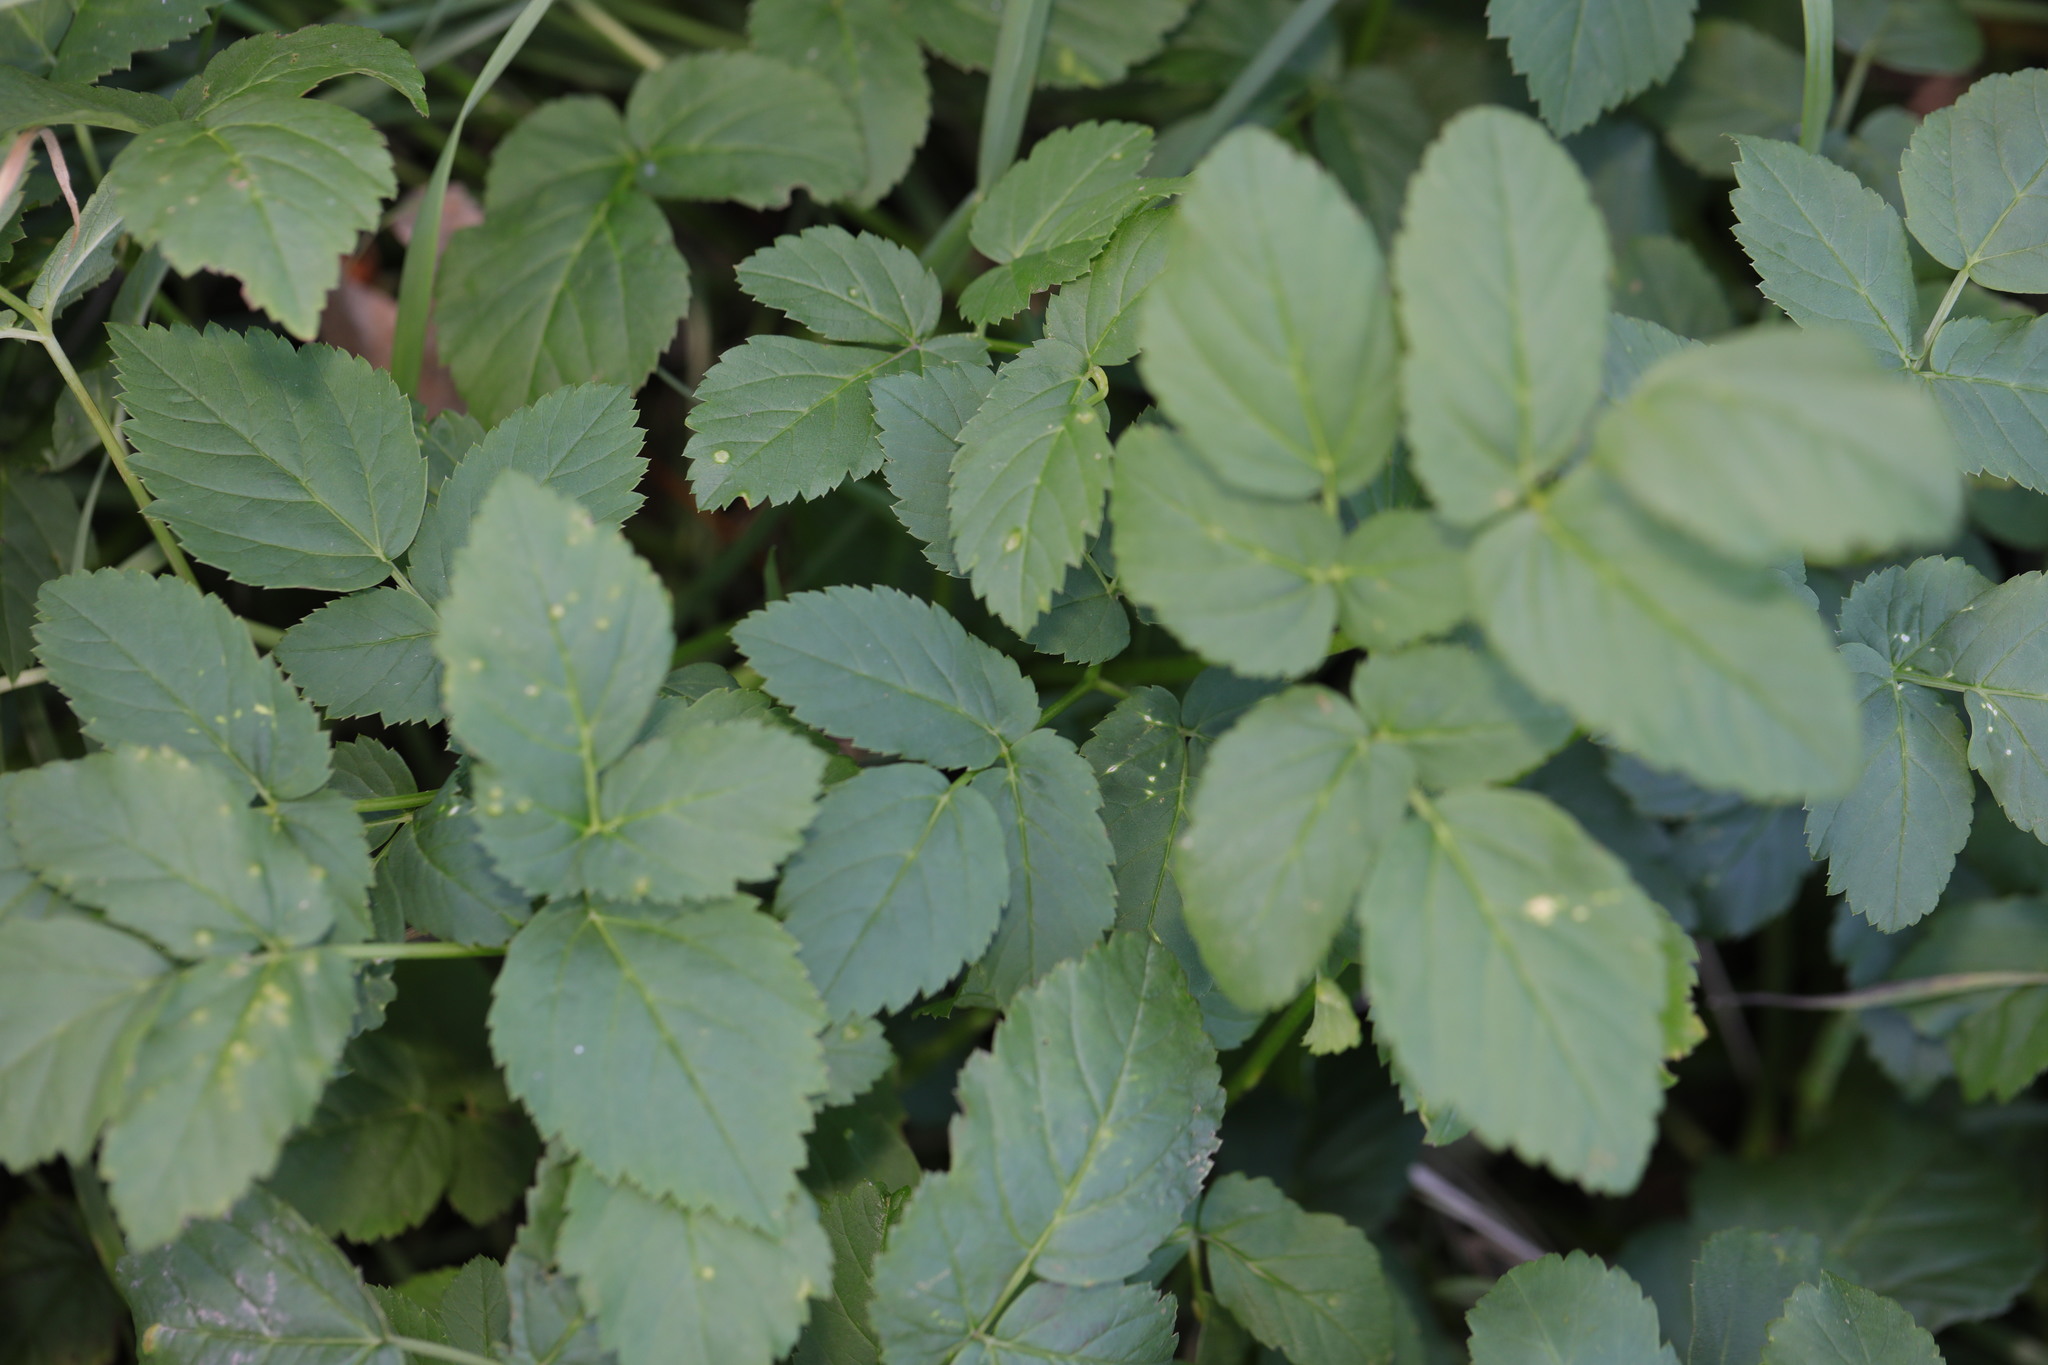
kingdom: Plantae
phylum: Tracheophyta
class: Magnoliopsida
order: Apiales
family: Apiaceae
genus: Aegopodium
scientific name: Aegopodium podagraria
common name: Ground-elder
